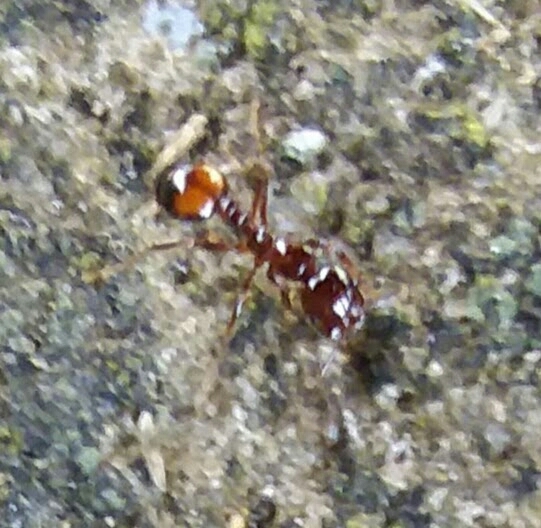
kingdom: Animalia
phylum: Arthropoda
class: Insecta
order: Hymenoptera
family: Formicidae
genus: Solenopsis
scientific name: Solenopsis
